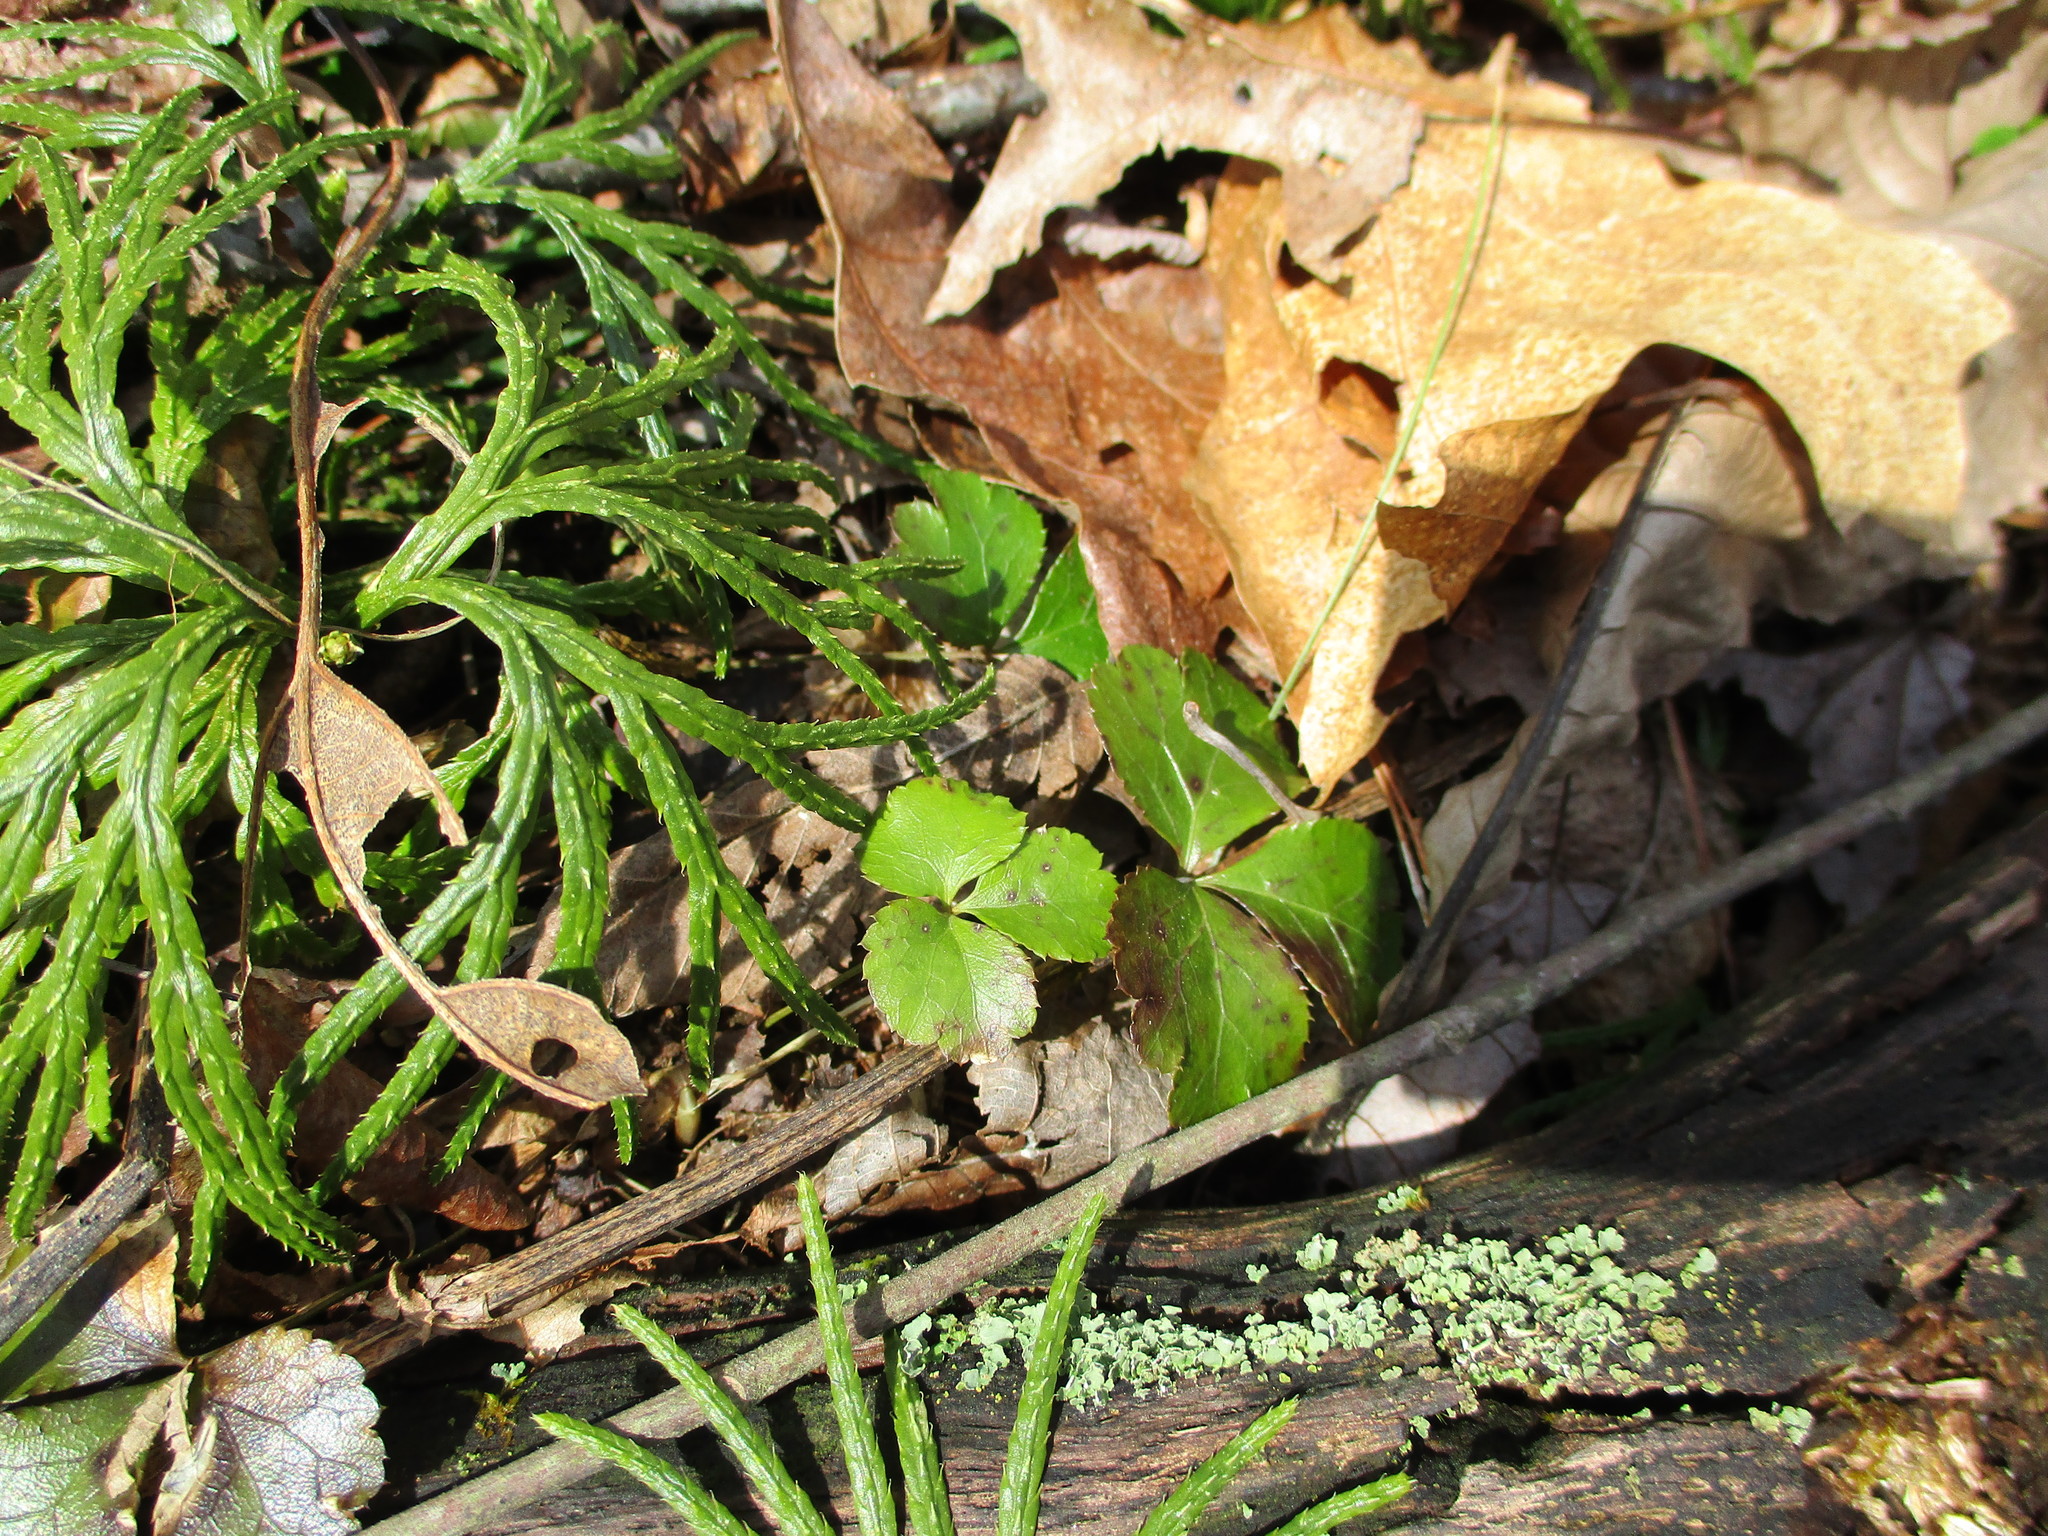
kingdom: Plantae
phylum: Tracheophyta
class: Magnoliopsida
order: Ranunculales
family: Ranunculaceae
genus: Coptis
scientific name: Coptis trifolia
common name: Canker-root
